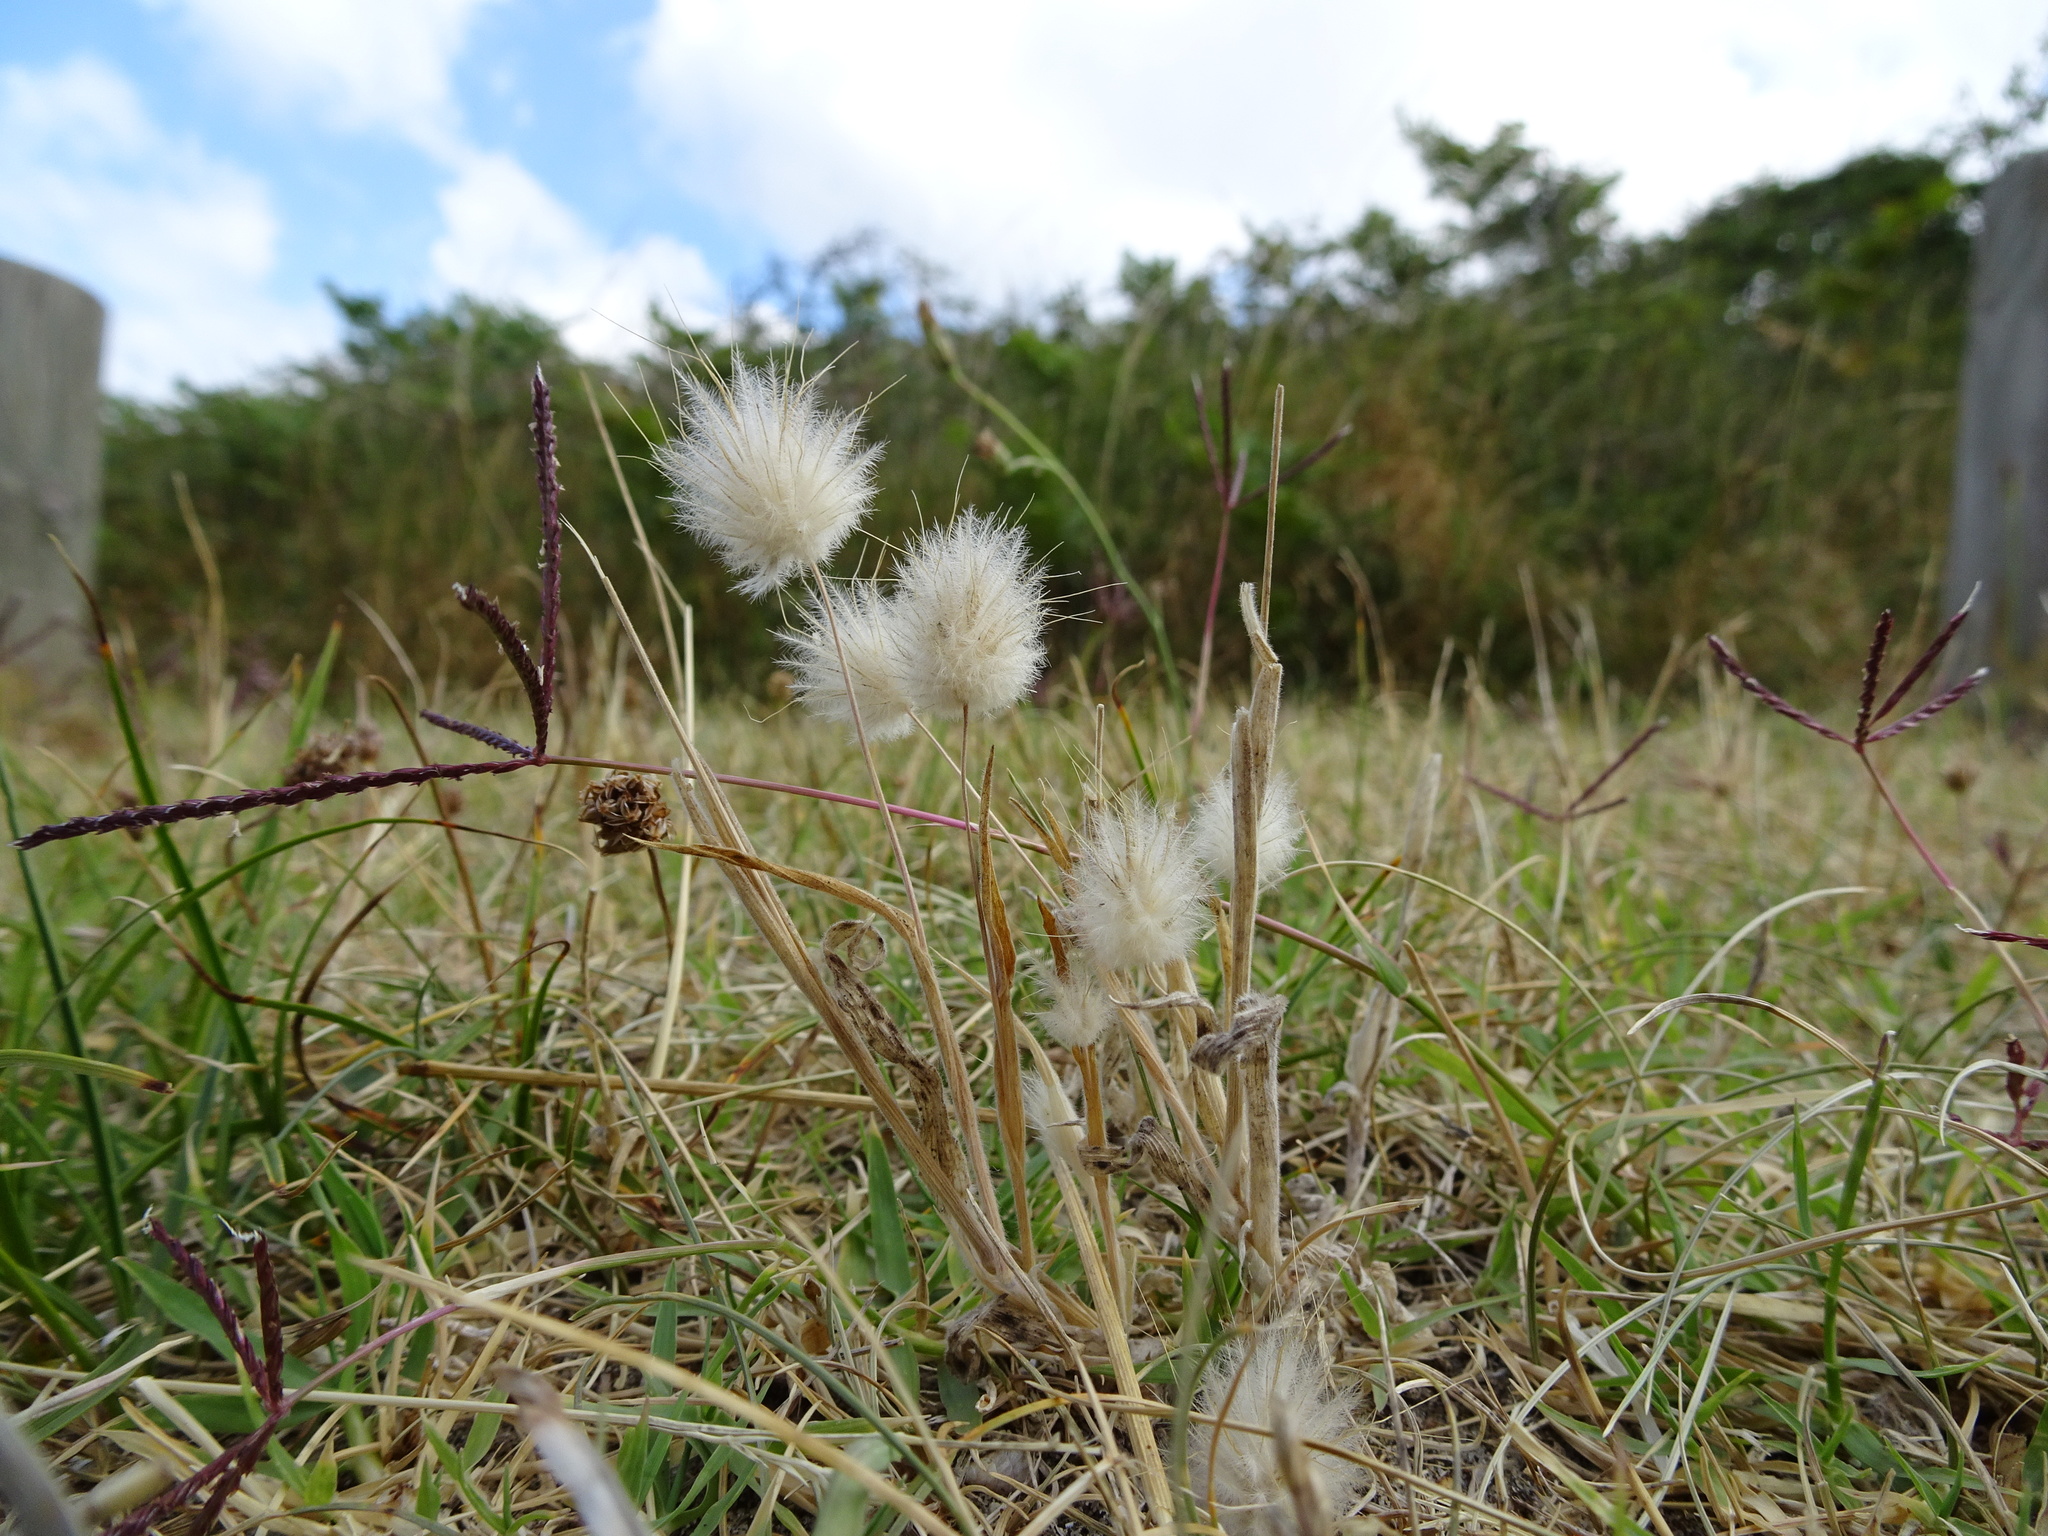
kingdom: Plantae
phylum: Tracheophyta
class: Liliopsida
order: Poales
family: Poaceae
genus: Cynodon
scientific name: Cynodon dactylon
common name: Bermuda grass
